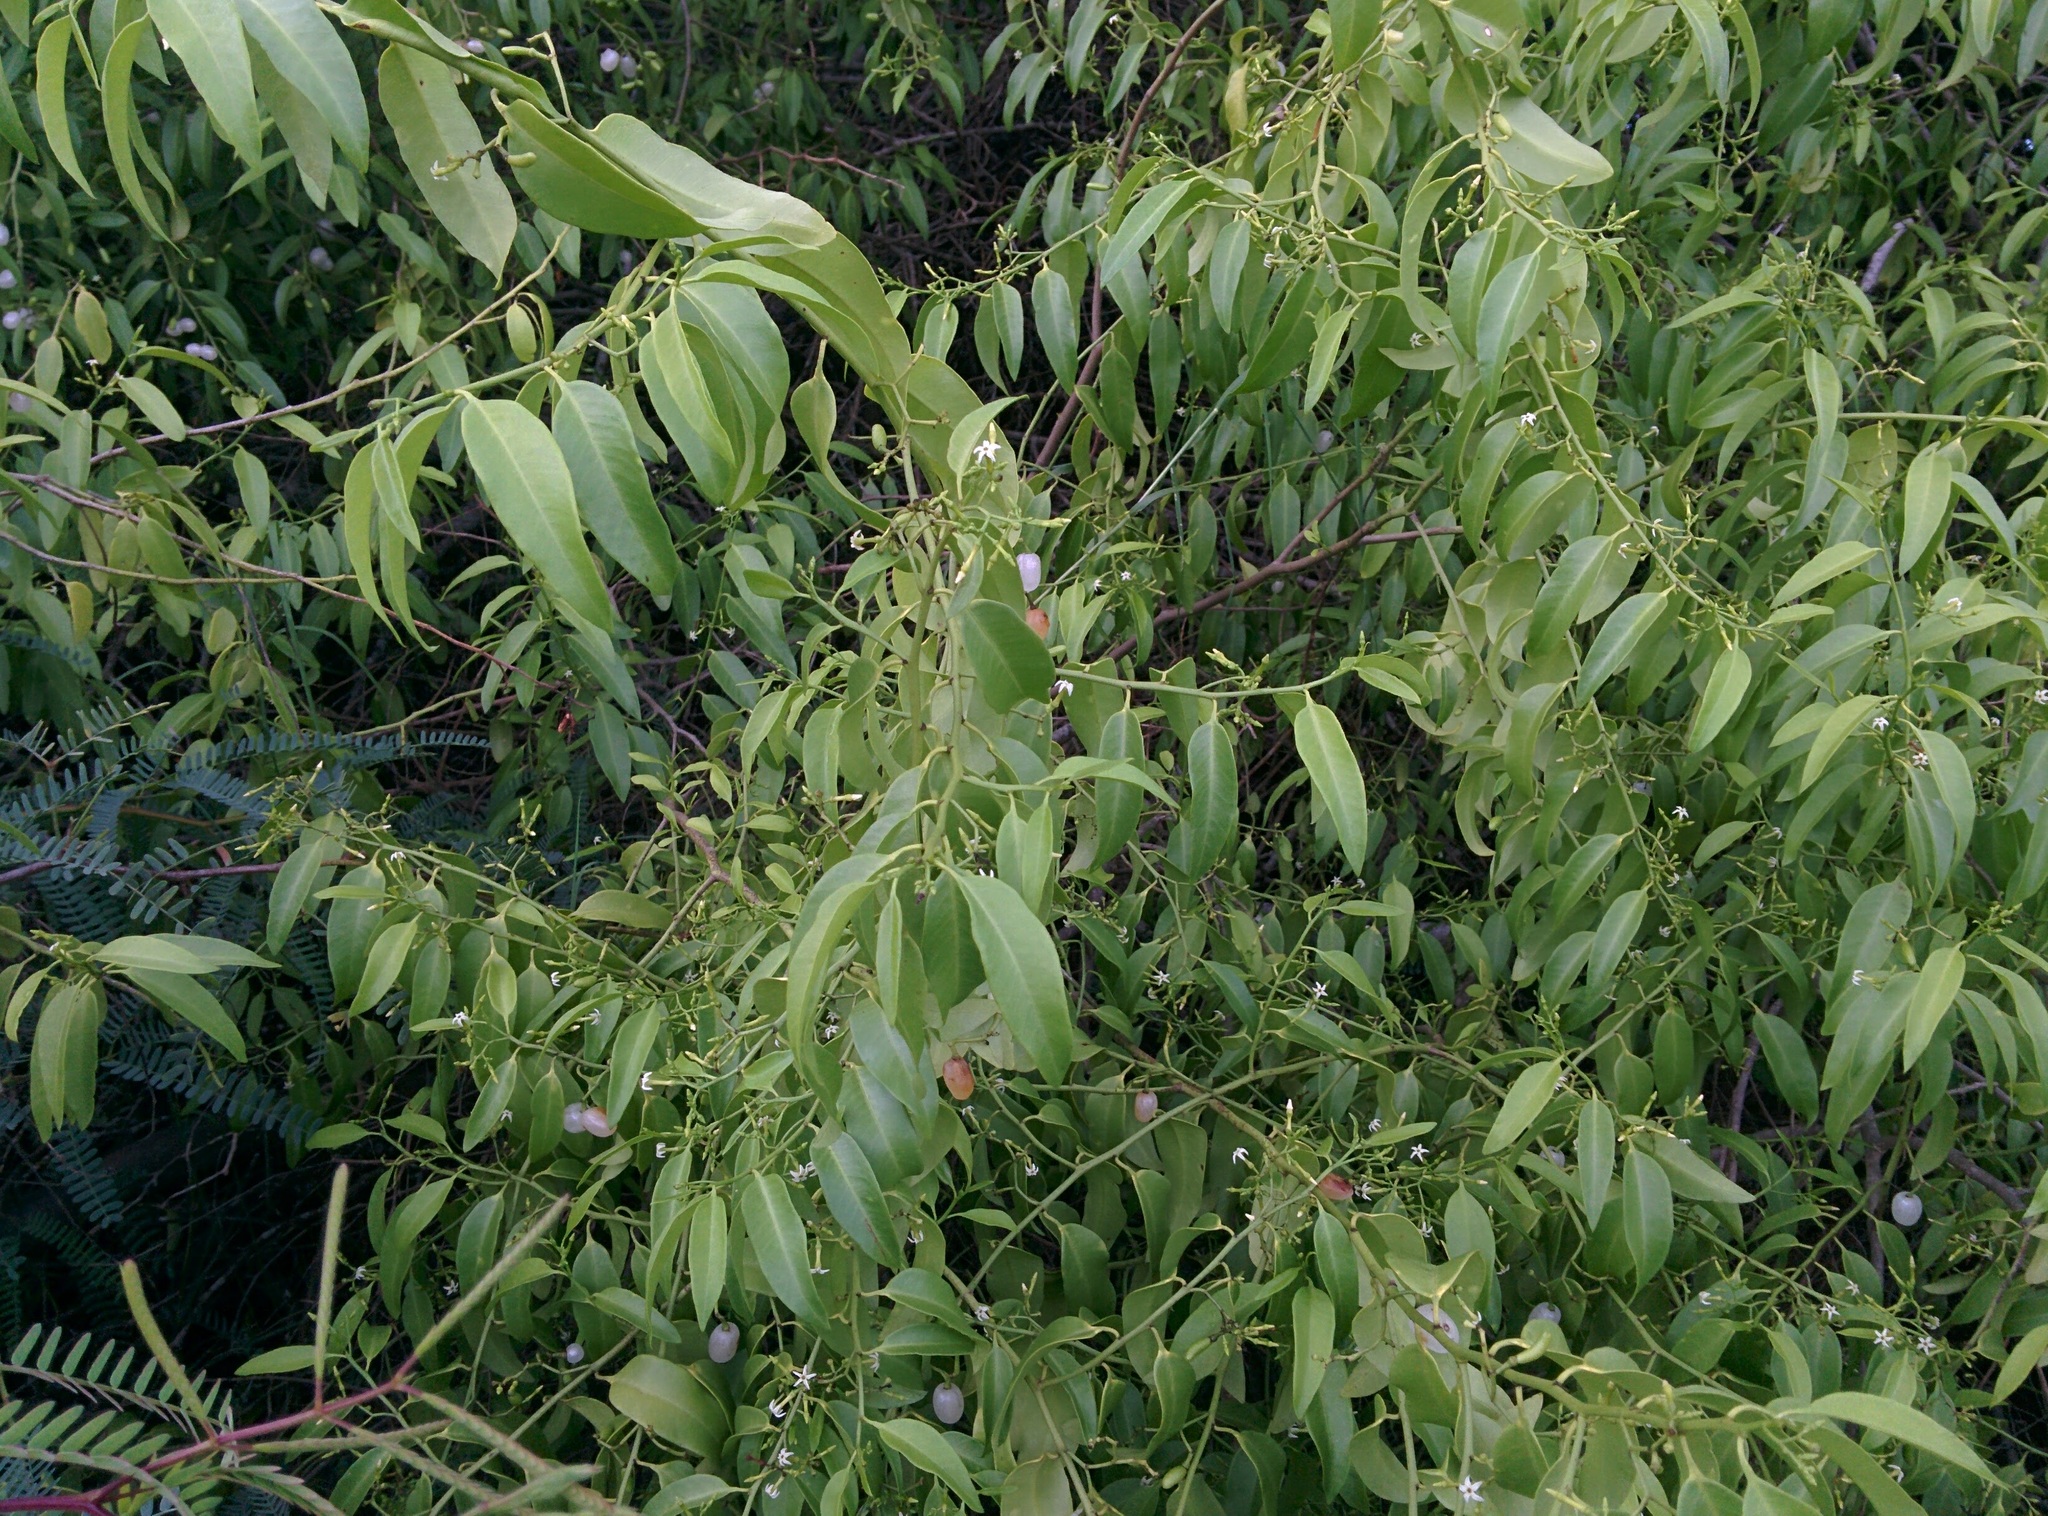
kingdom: Plantae
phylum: Tracheophyta
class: Magnoliopsida
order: Gentianales
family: Apocynaceae
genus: Vallesia
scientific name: Vallesia glabra
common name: Pearlberry
